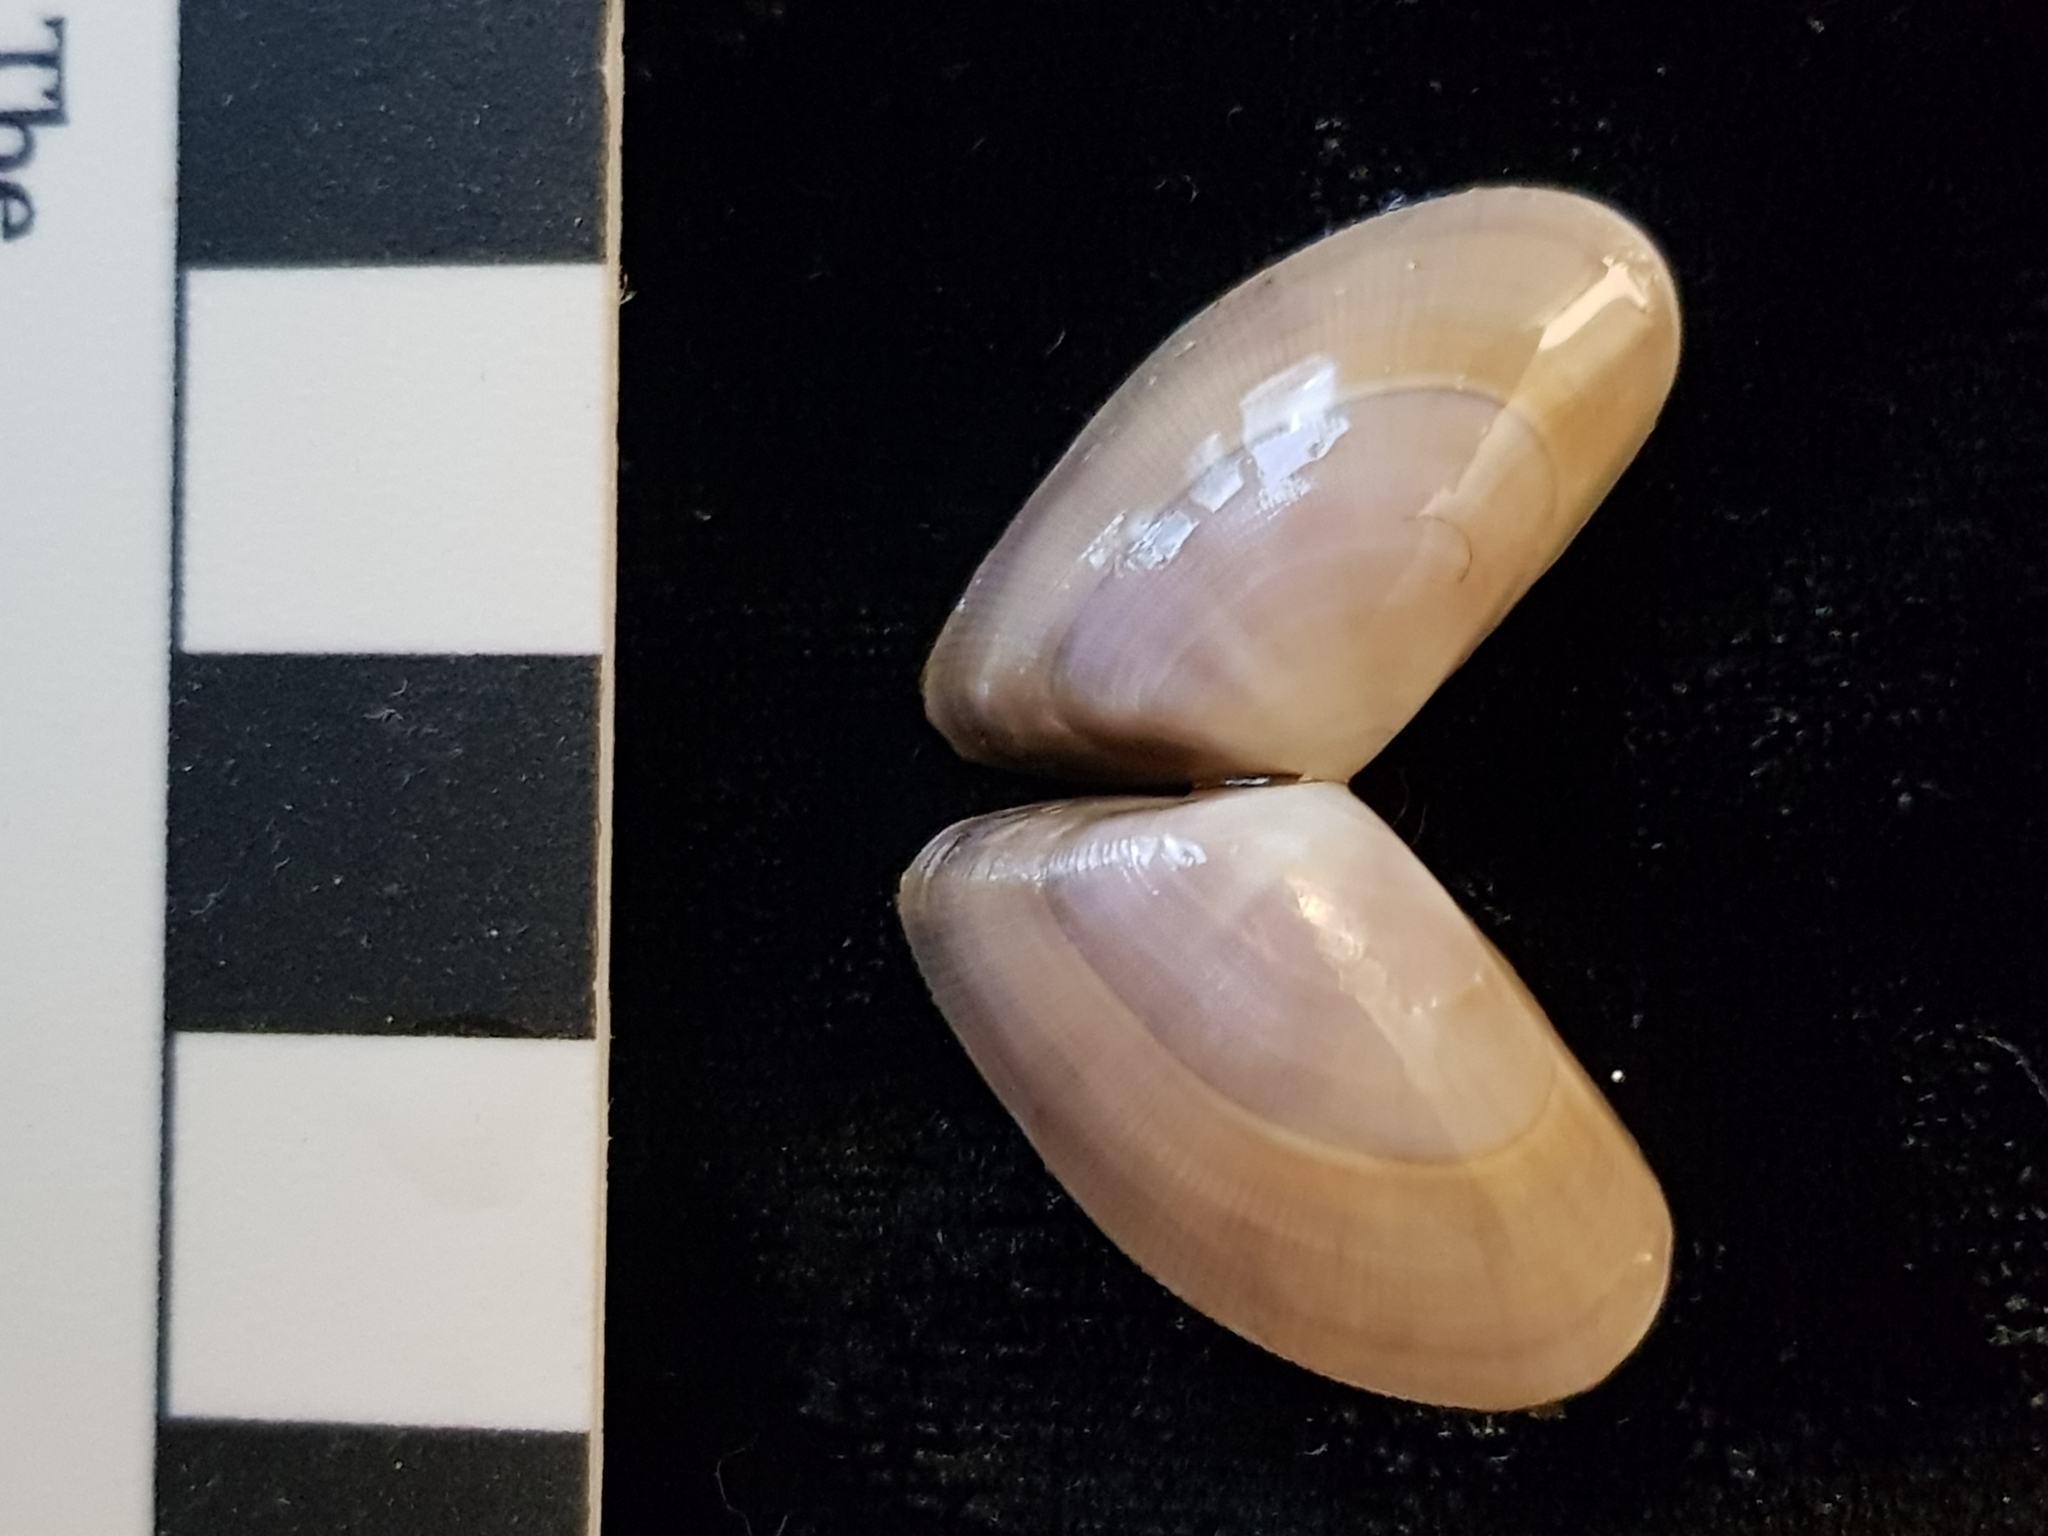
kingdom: Animalia
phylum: Mollusca
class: Bivalvia
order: Cardiida
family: Donacidae
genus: Donax
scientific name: Donax vittatus
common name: Banded wedge-shell
